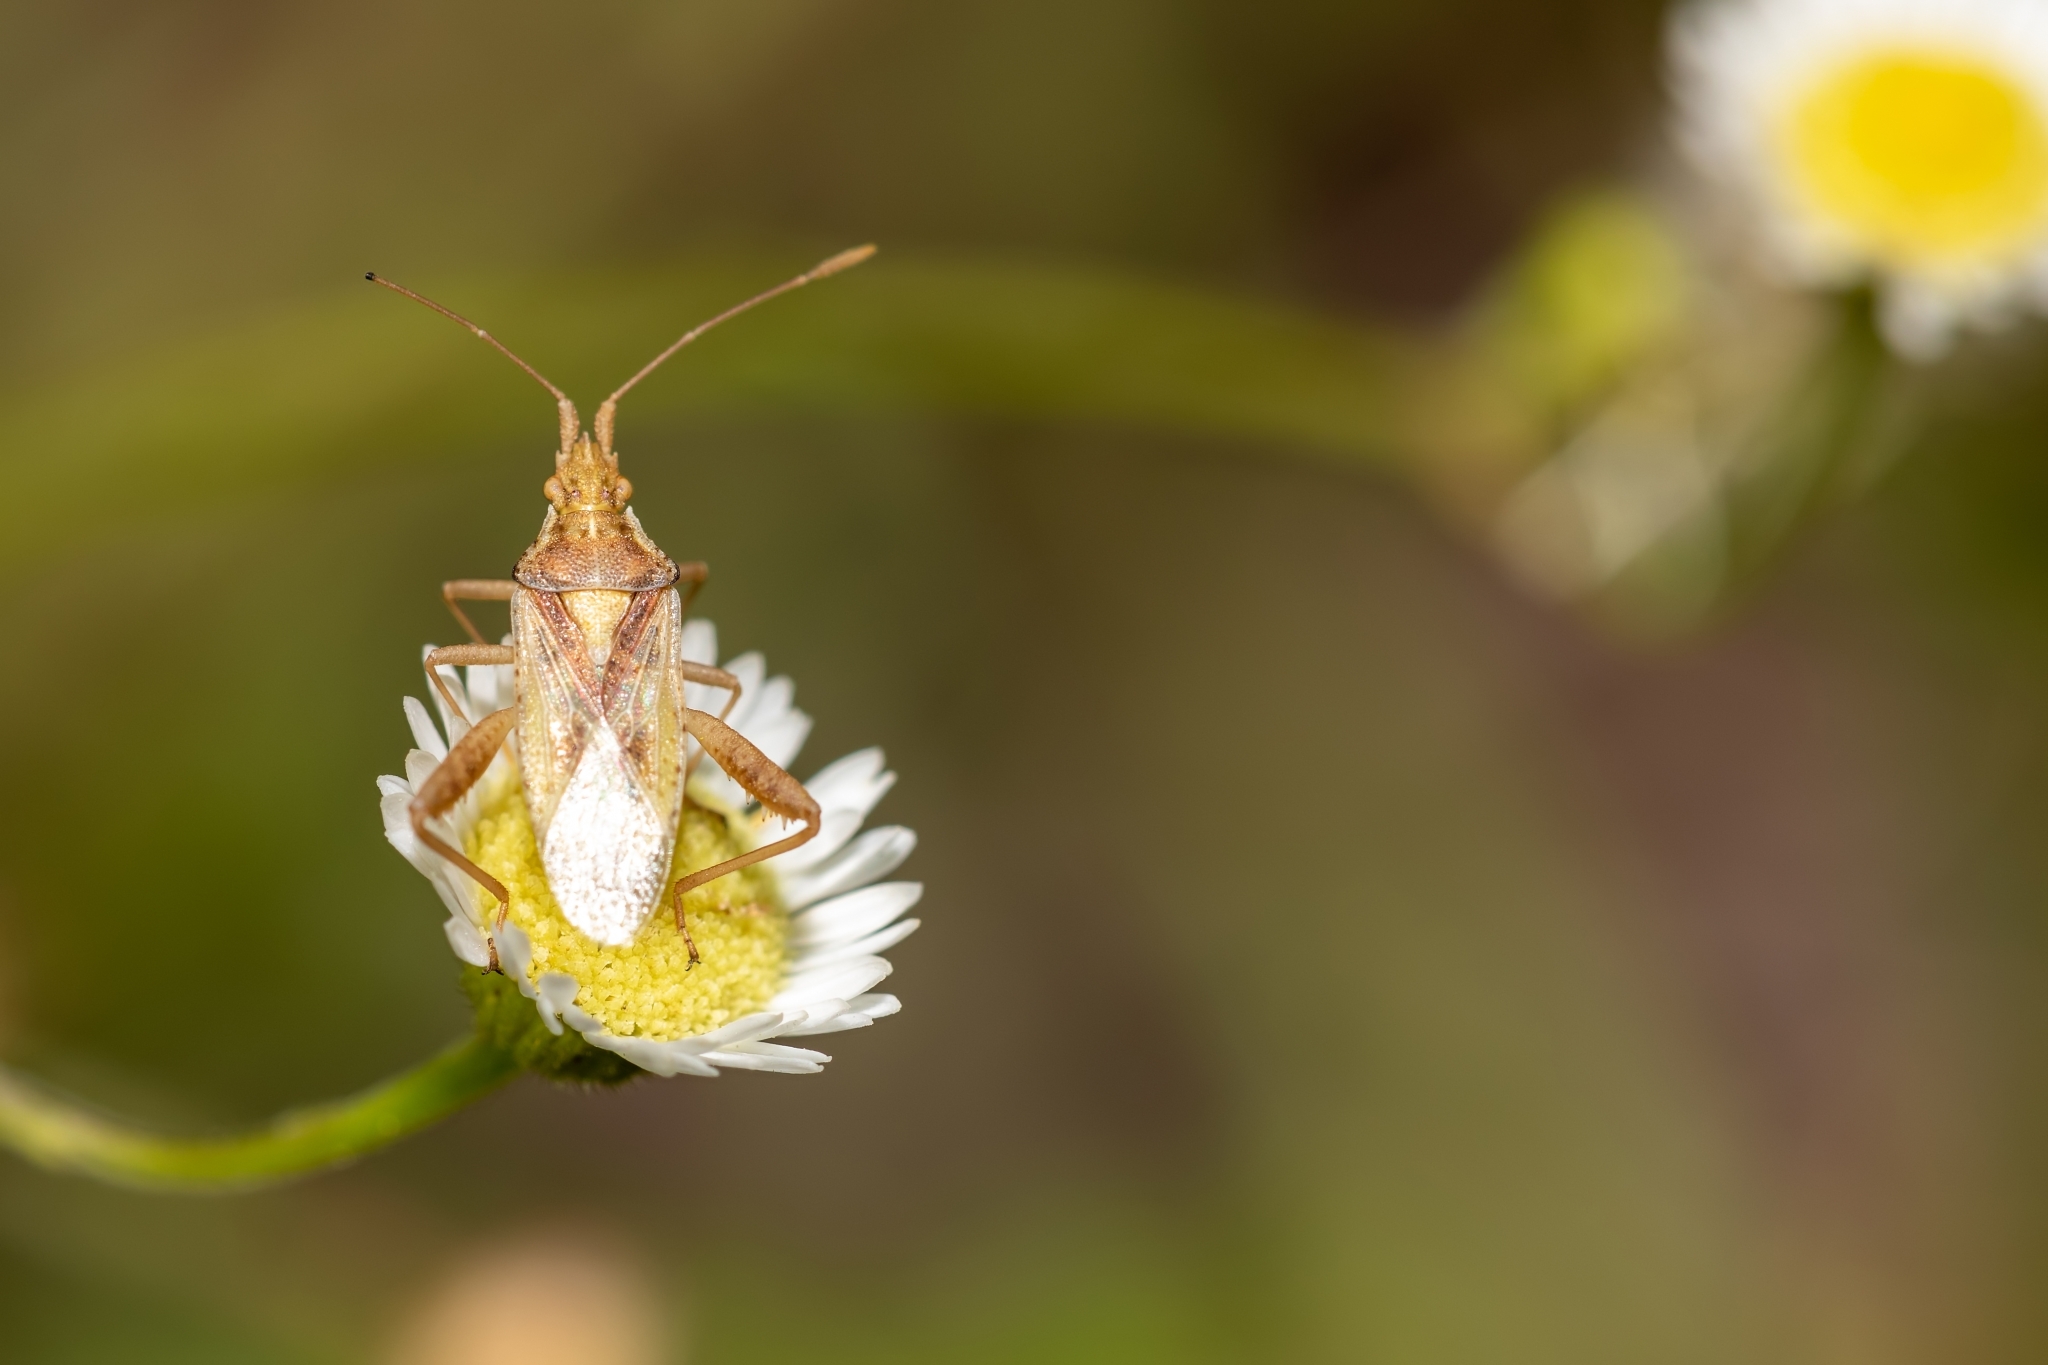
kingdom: Animalia
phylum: Arthropoda
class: Insecta
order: Hemiptera
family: Rhopalidae
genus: Harmostes
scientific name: Harmostes reflexulus
